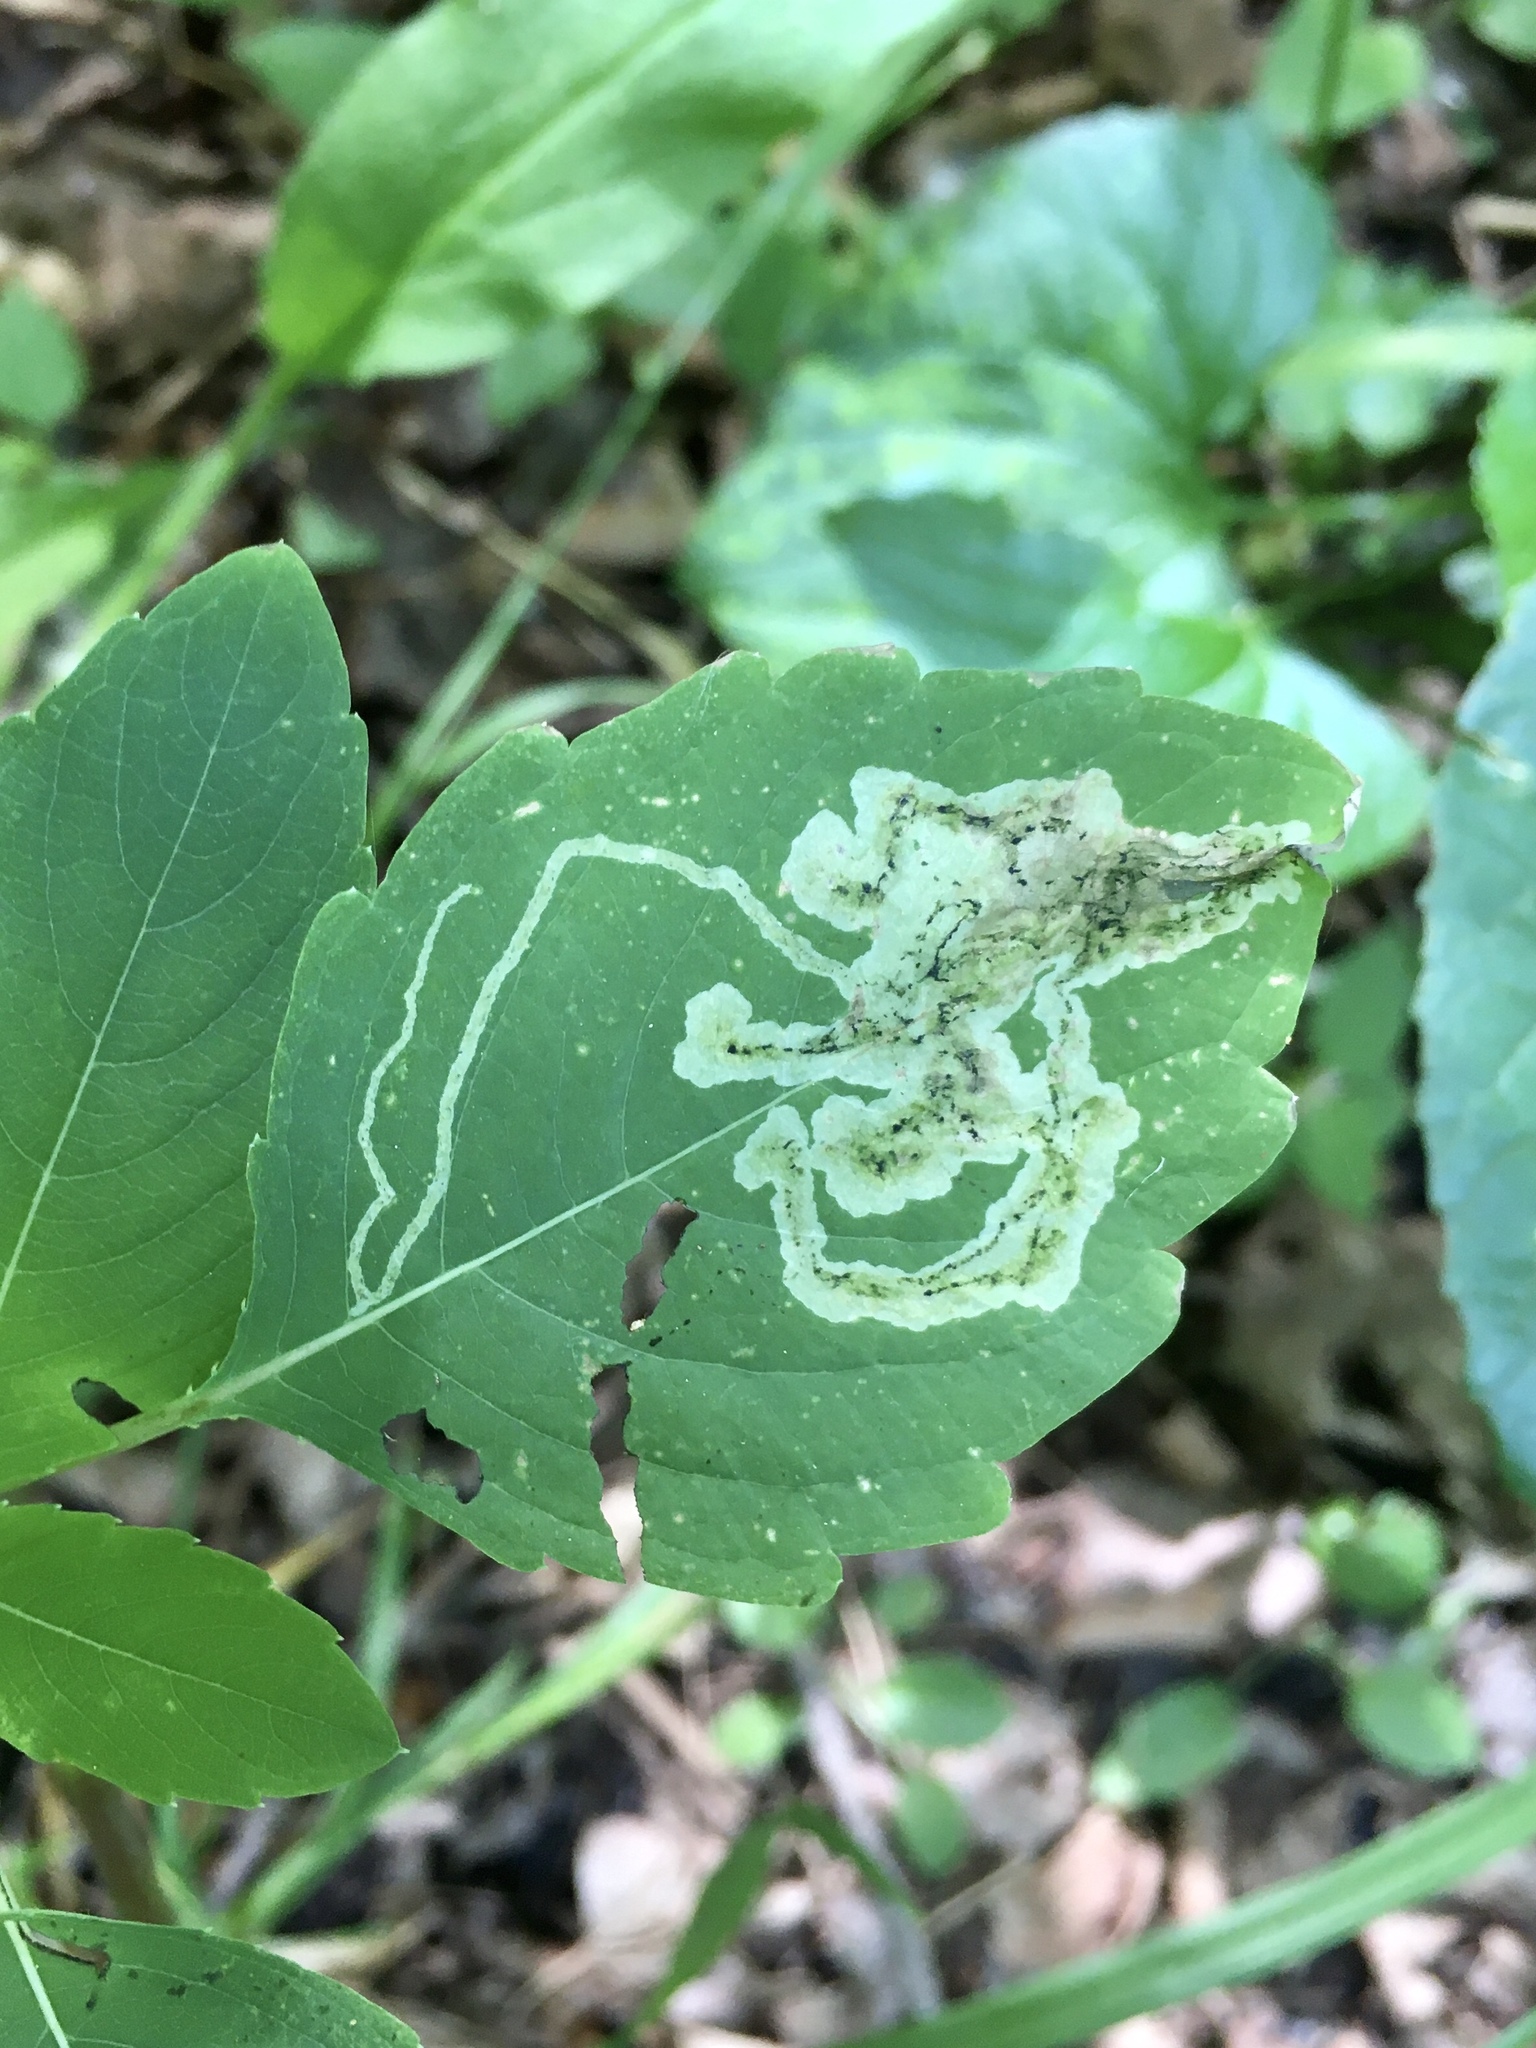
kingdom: Animalia
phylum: Arthropoda
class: Insecta
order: Diptera
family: Agromyzidae
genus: Phytoliriomyza
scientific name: Phytoliriomyza melampyga
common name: Jewelweed leaf-miner fly
